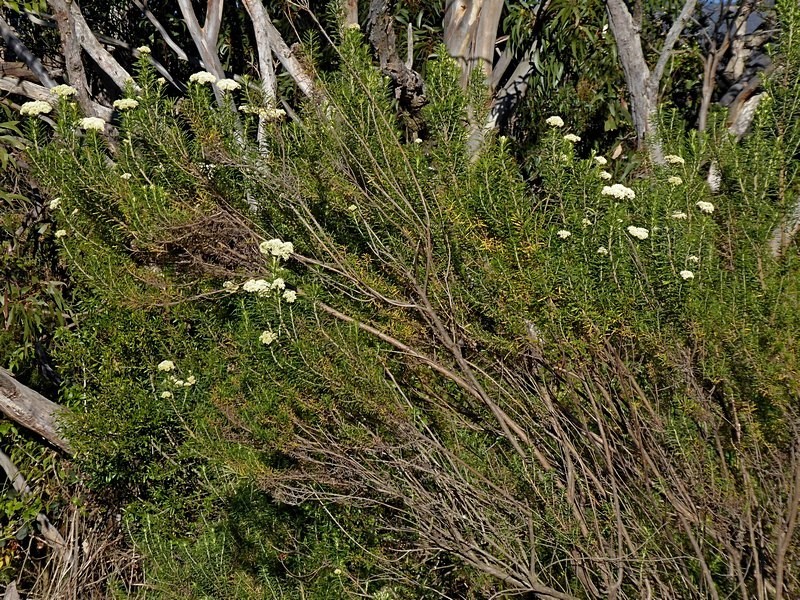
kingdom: Plantae
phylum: Tracheophyta
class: Magnoliopsida
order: Asterales
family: Asteraceae
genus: Cassinia
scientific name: Cassinia aculeata
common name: Australian tauhinu
